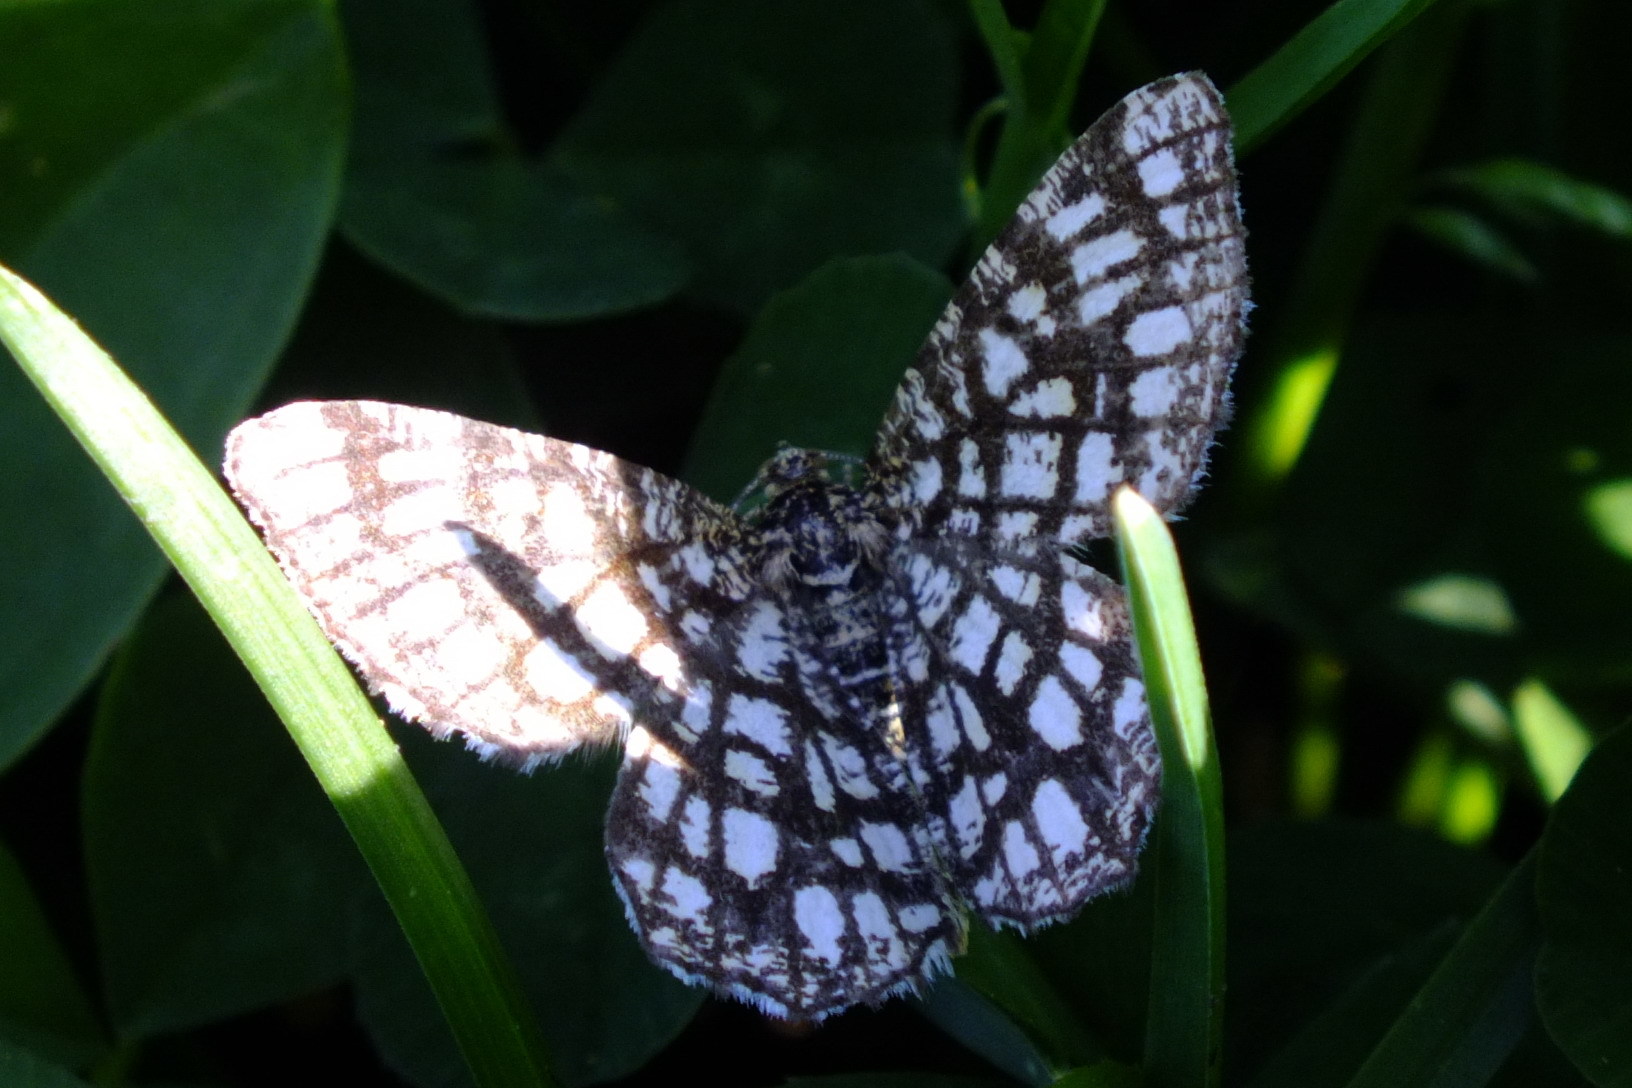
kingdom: Animalia
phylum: Arthropoda
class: Insecta
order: Lepidoptera
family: Geometridae
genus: Chiasmia
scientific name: Chiasmia clathrata
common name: Latticed heath
